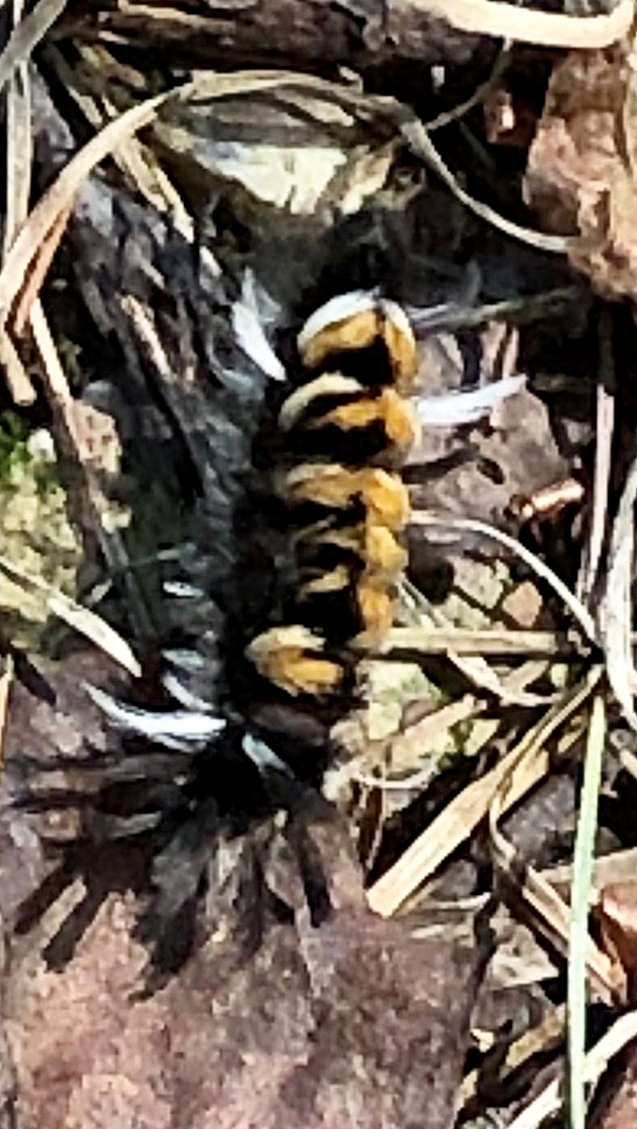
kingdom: Animalia
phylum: Arthropoda
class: Insecta
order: Lepidoptera
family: Erebidae
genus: Euchaetes
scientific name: Euchaetes egle
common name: Milkweed tussock moth
